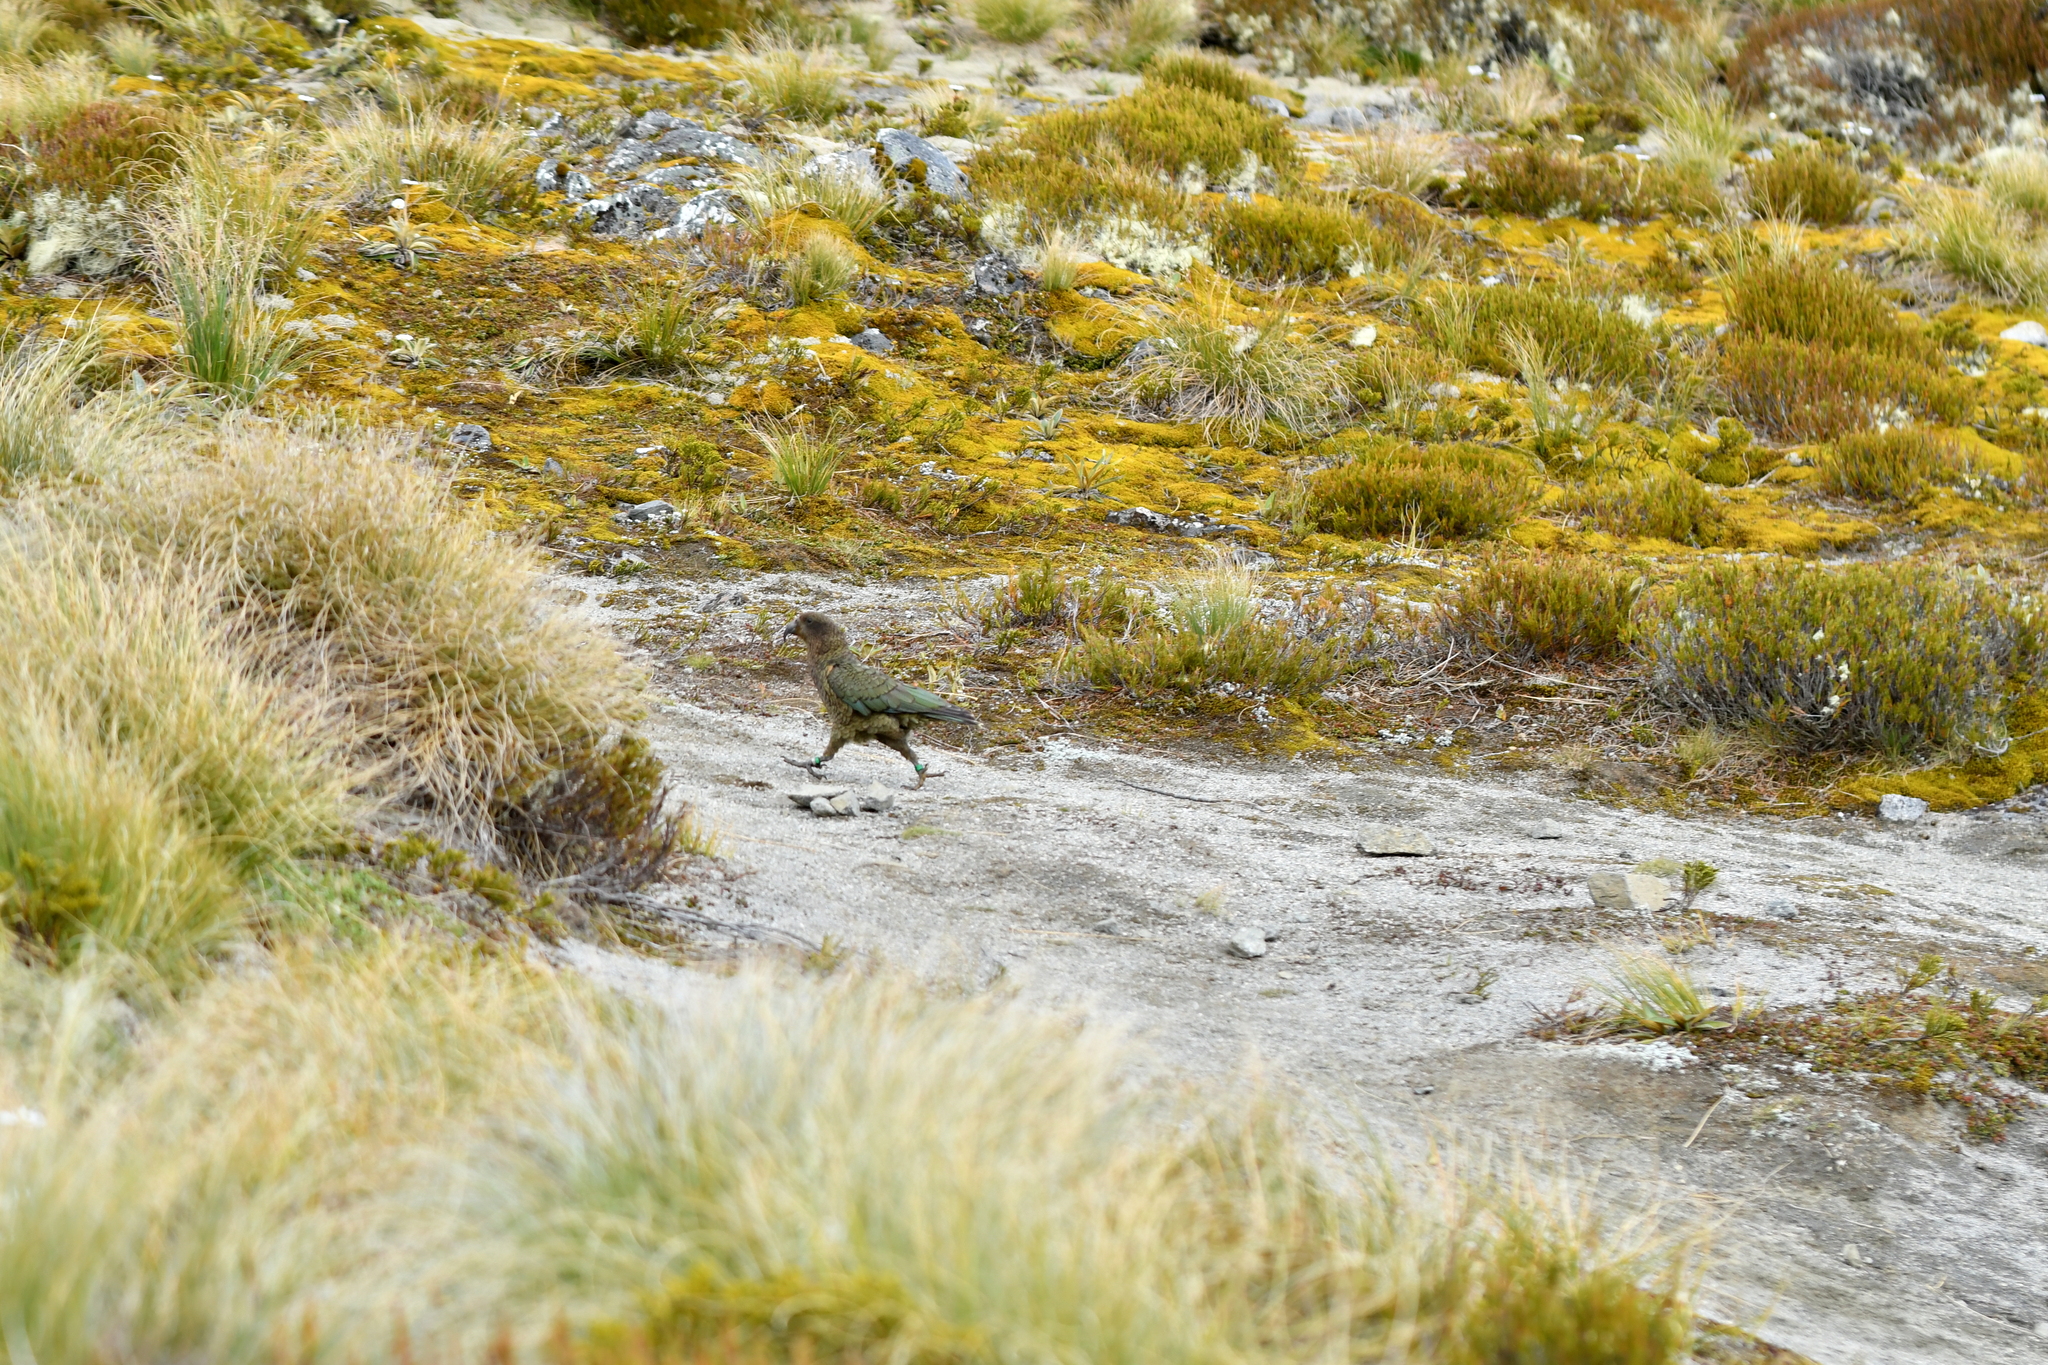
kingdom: Animalia
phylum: Chordata
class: Aves
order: Psittaciformes
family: Psittacidae
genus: Nestor
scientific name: Nestor notabilis
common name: Kea
